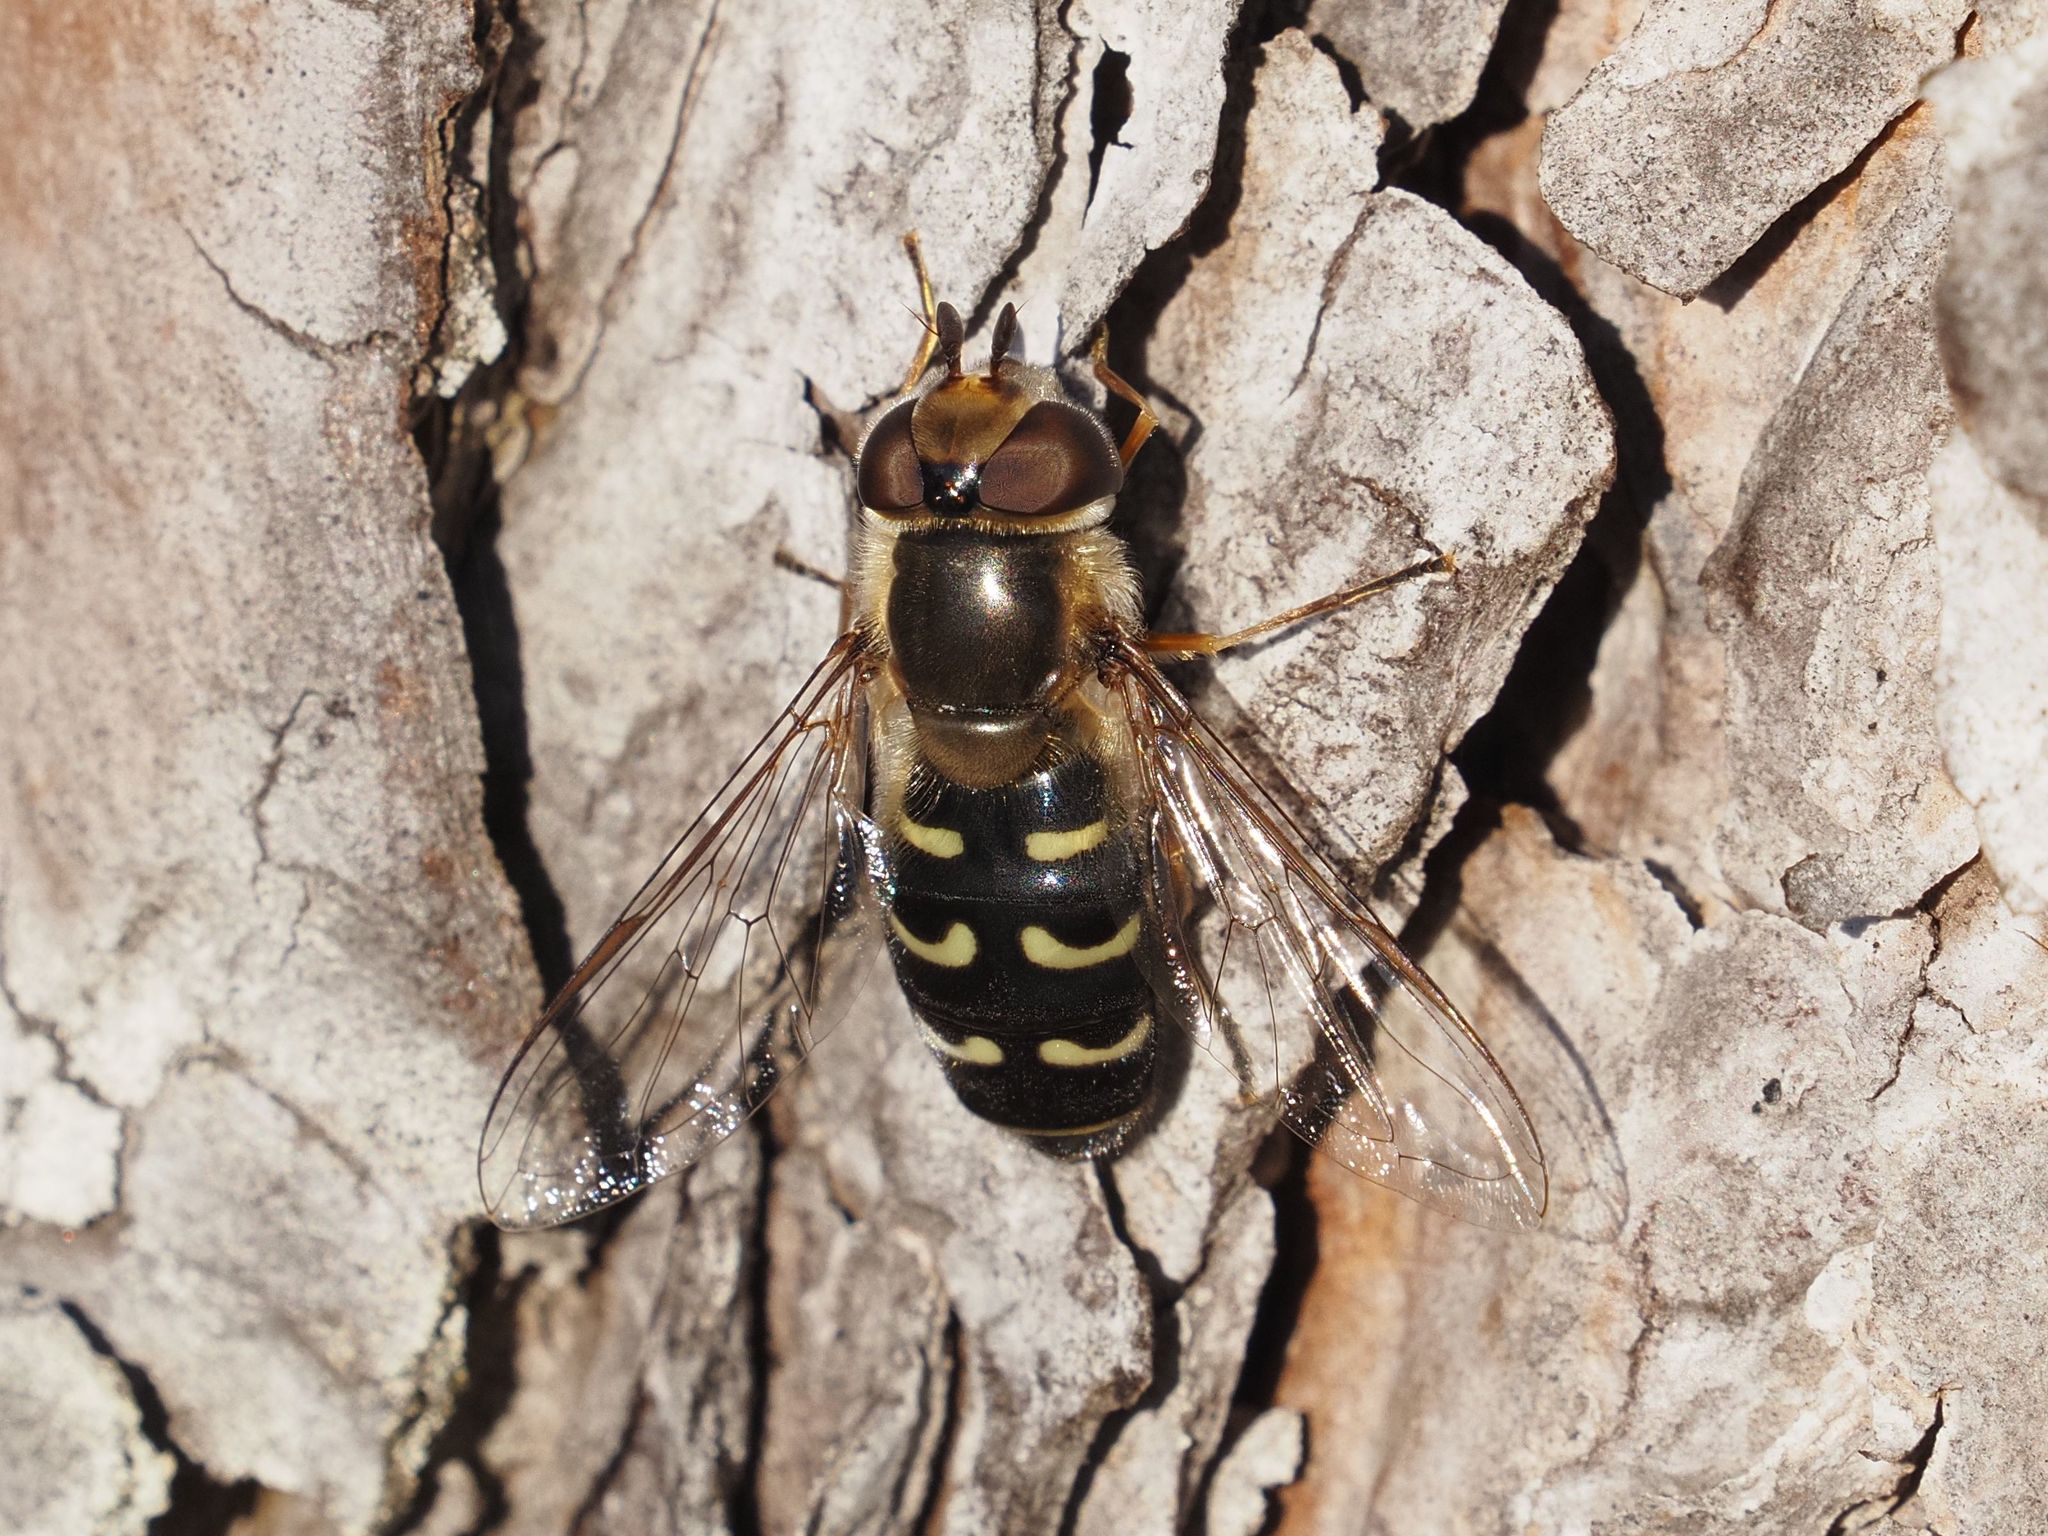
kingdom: Animalia
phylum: Arthropoda
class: Insecta
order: Diptera
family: Syrphidae
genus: Scaeva
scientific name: Scaeva selenitica
